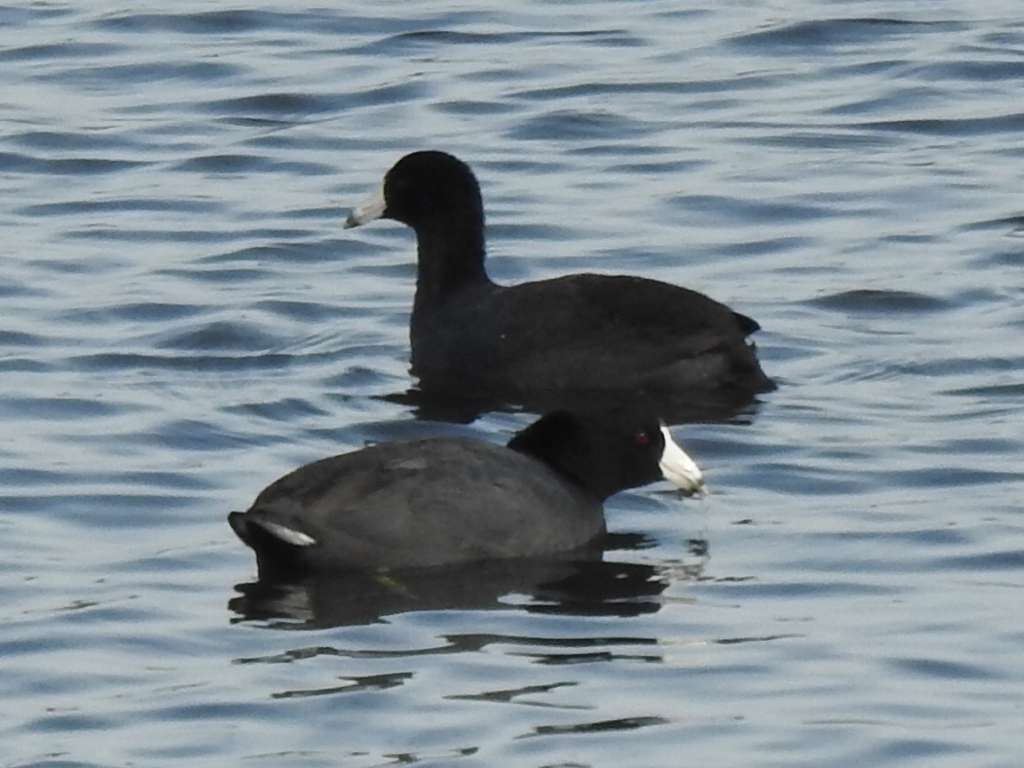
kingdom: Animalia
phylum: Chordata
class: Aves
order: Gruiformes
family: Rallidae
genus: Fulica
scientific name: Fulica americana
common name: American coot
